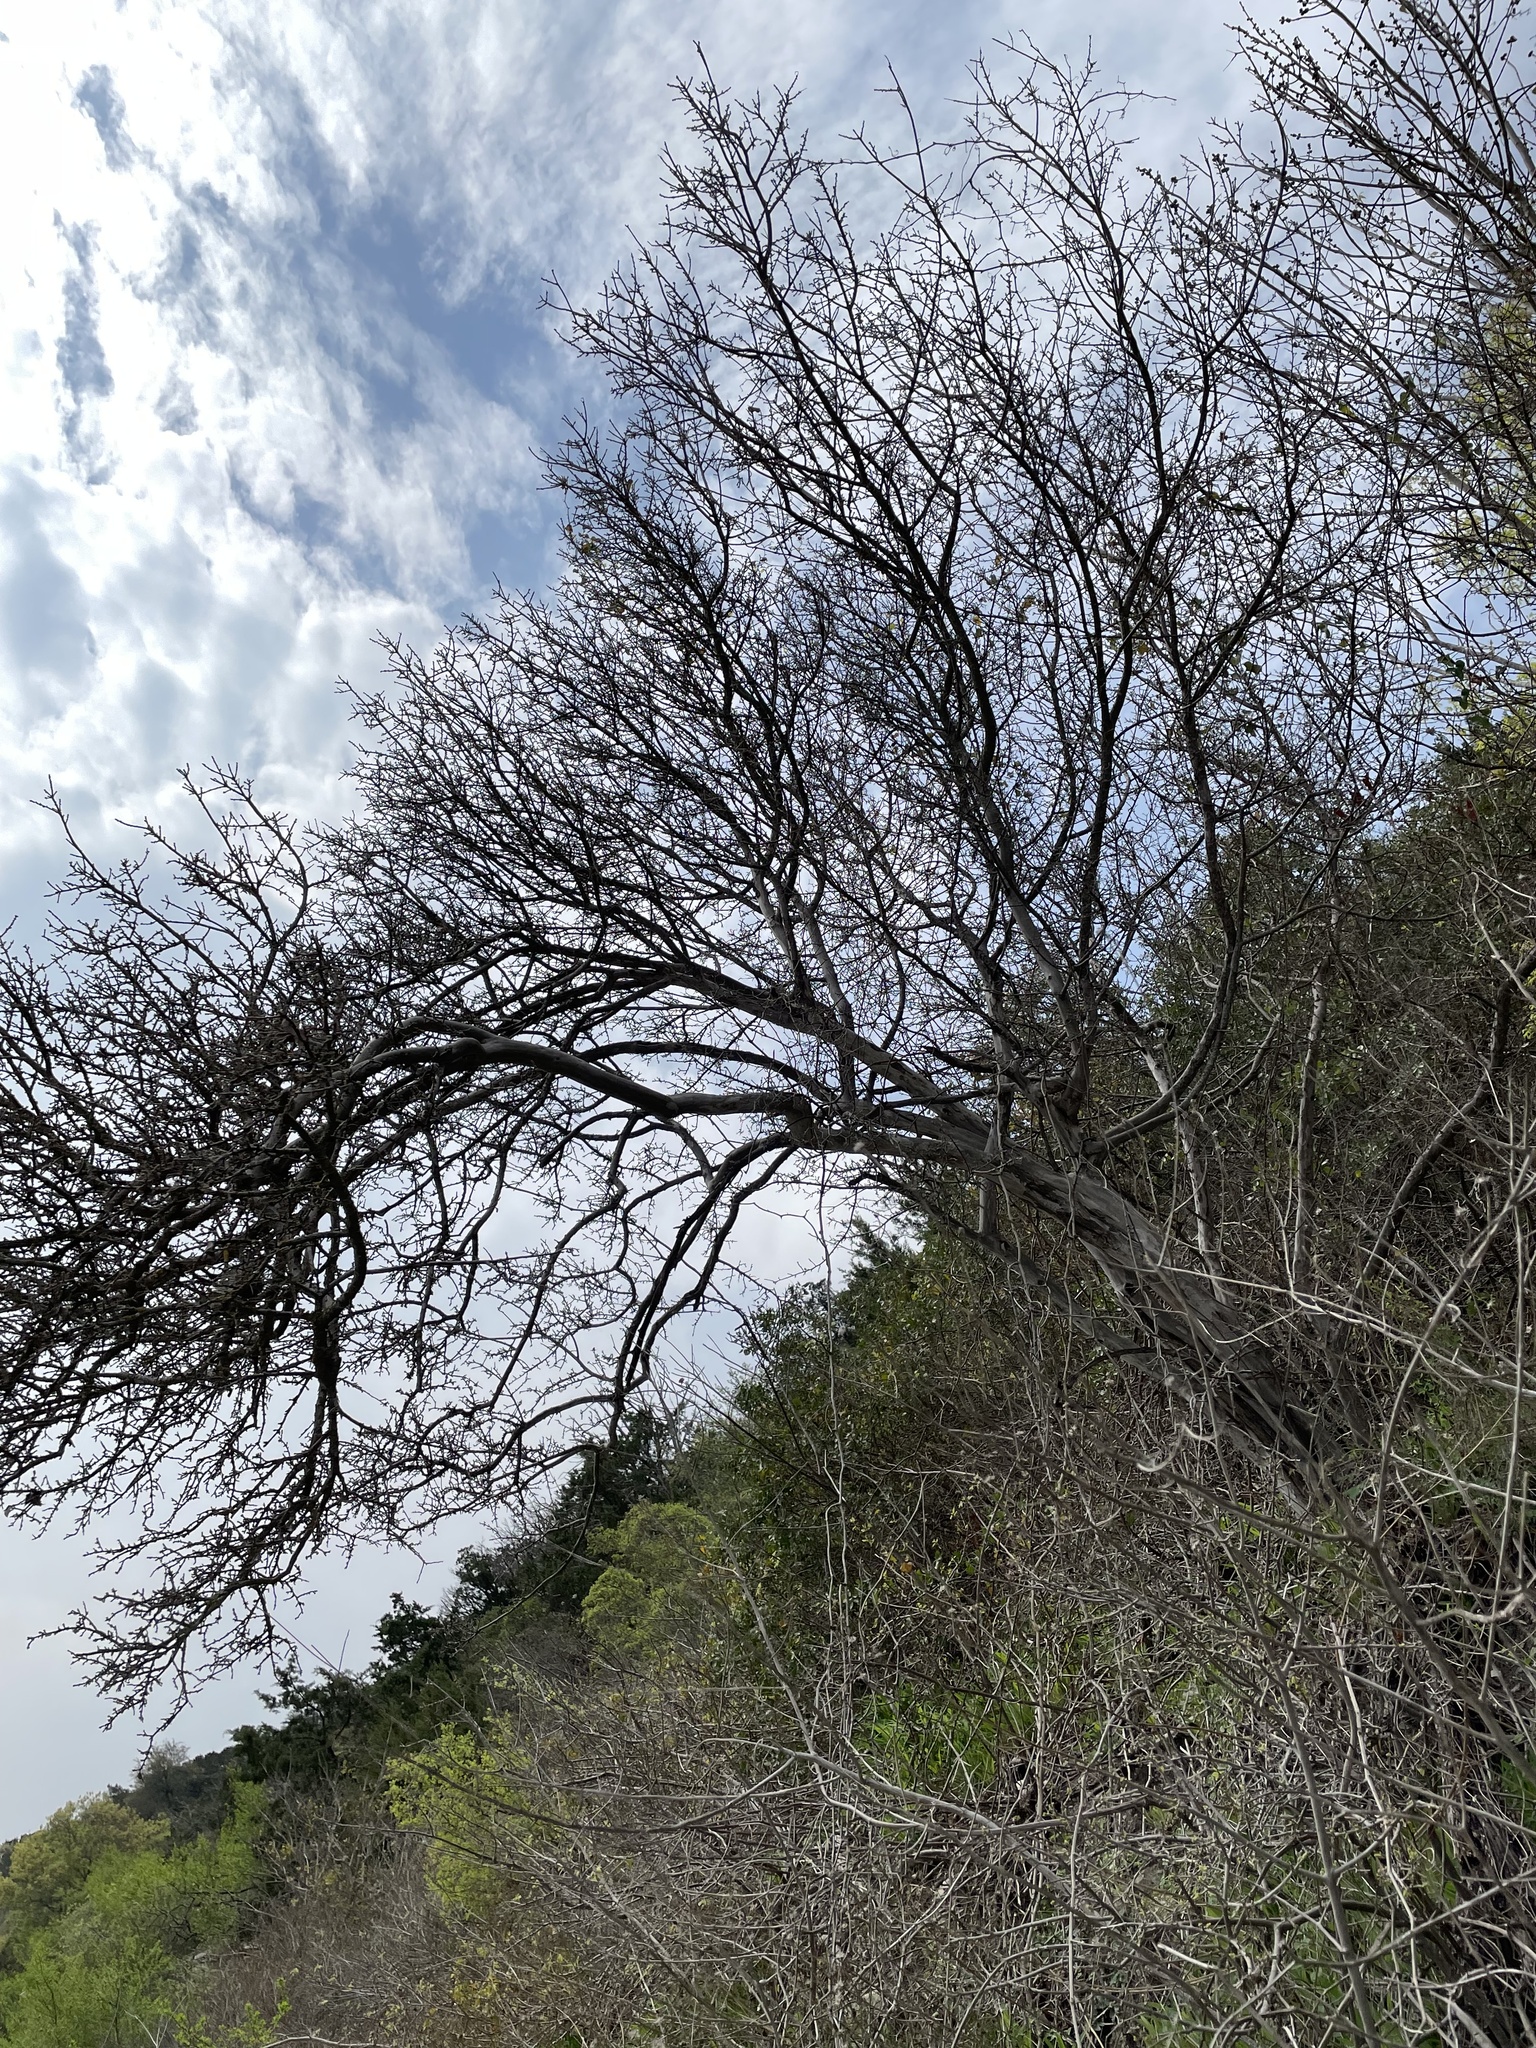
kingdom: Plantae
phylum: Tracheophyta
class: Magnoliopsida
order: Ericales
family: Ebenaceae
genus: Diospyros
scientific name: Diospyros texana
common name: Texas persimmon
